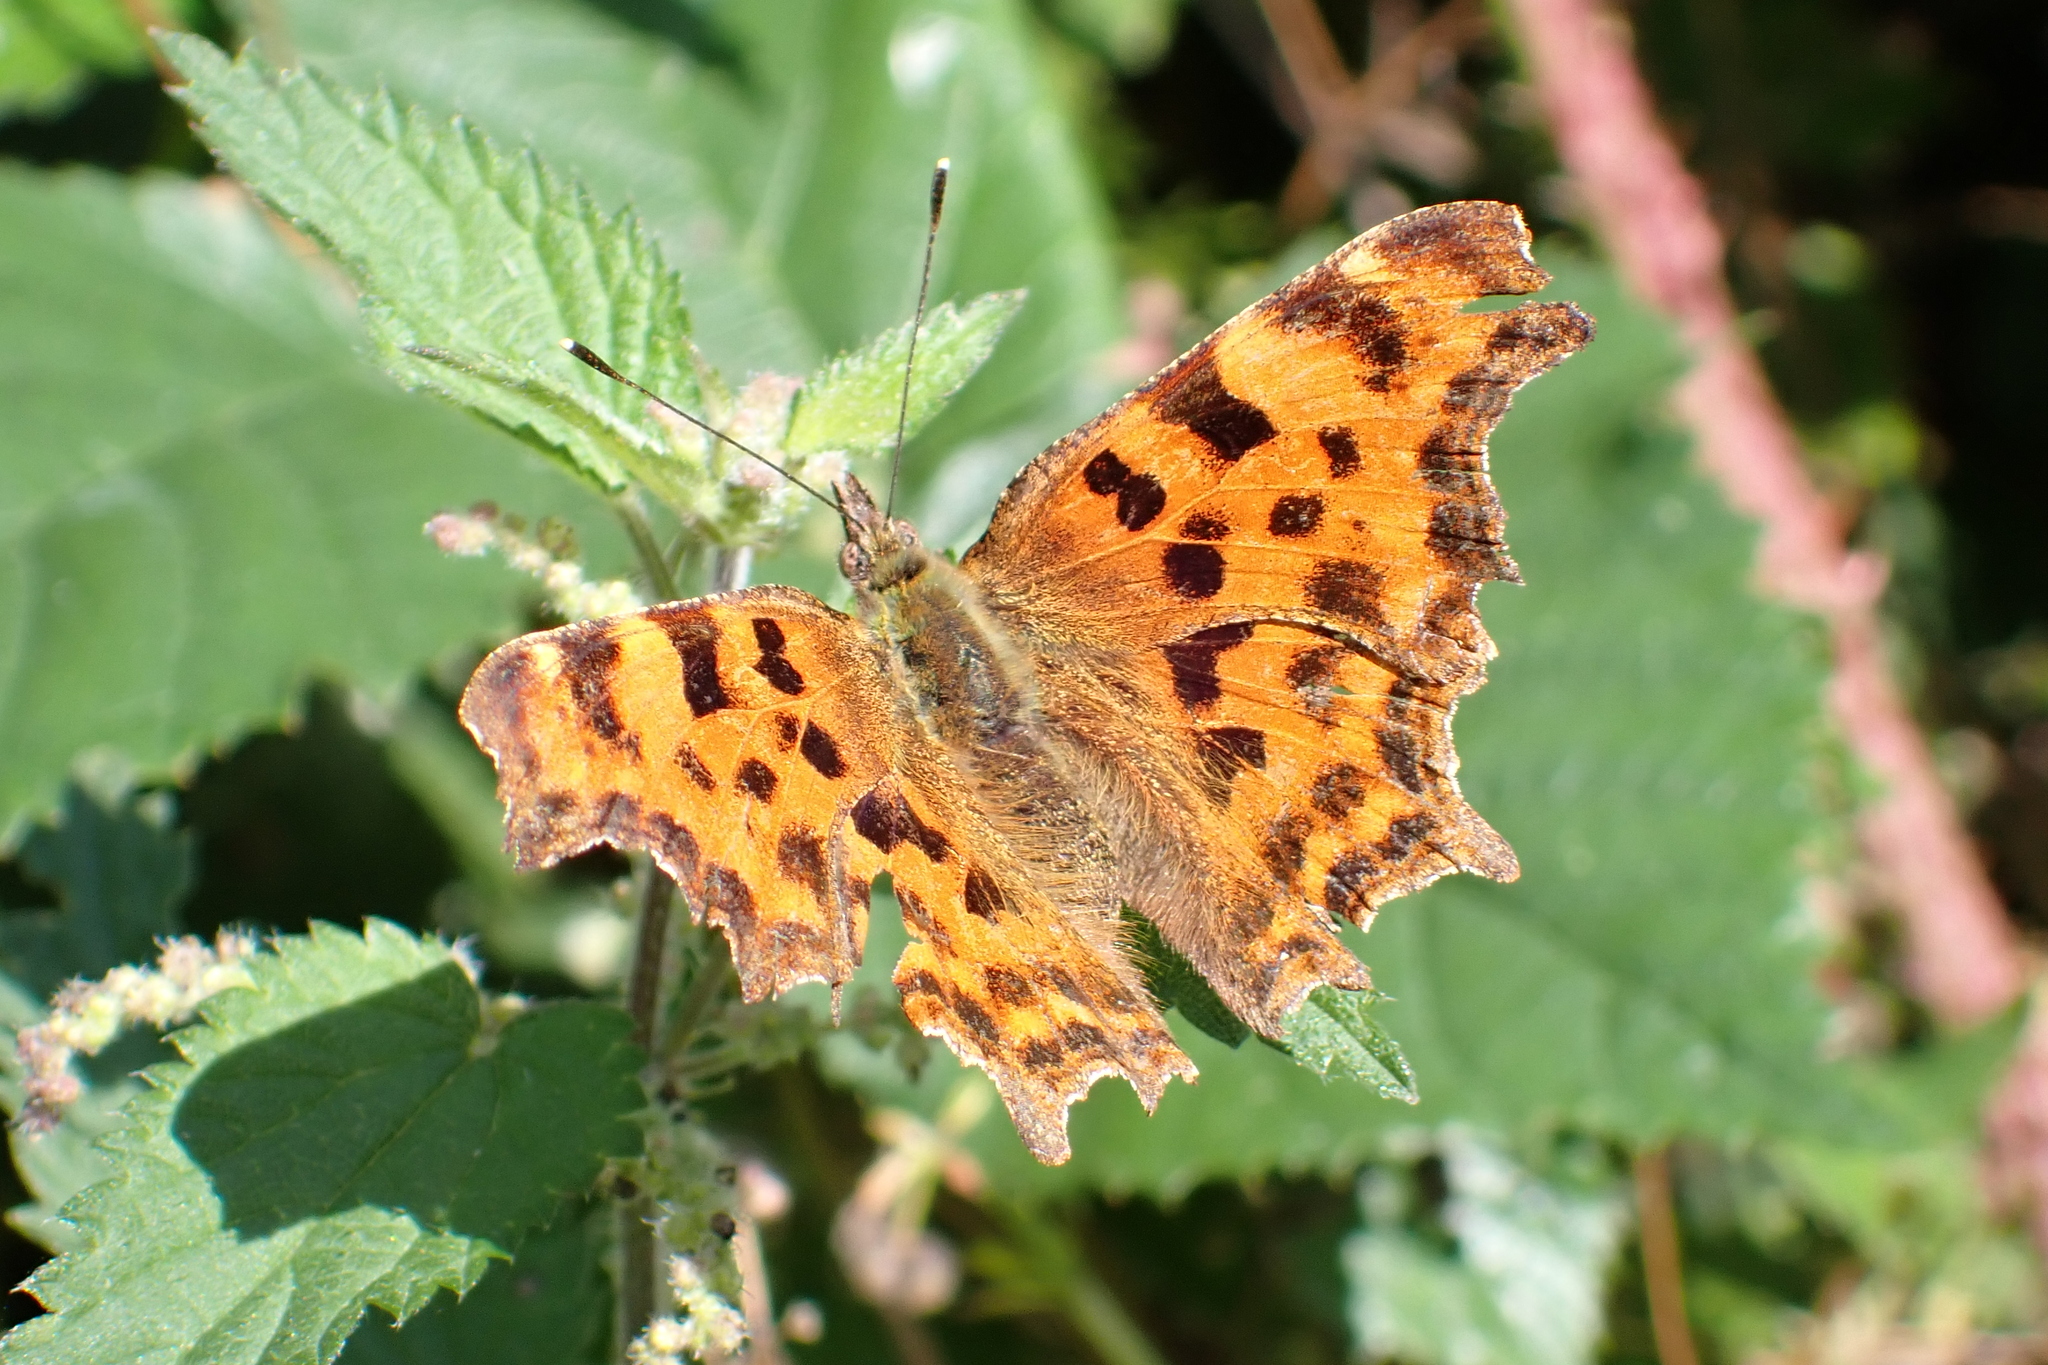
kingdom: Animalia
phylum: Arthropoda
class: Insecta
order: Lepidoptera
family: Nymphalidae
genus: Polygonia
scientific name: Polygonia c-album
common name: Comma
